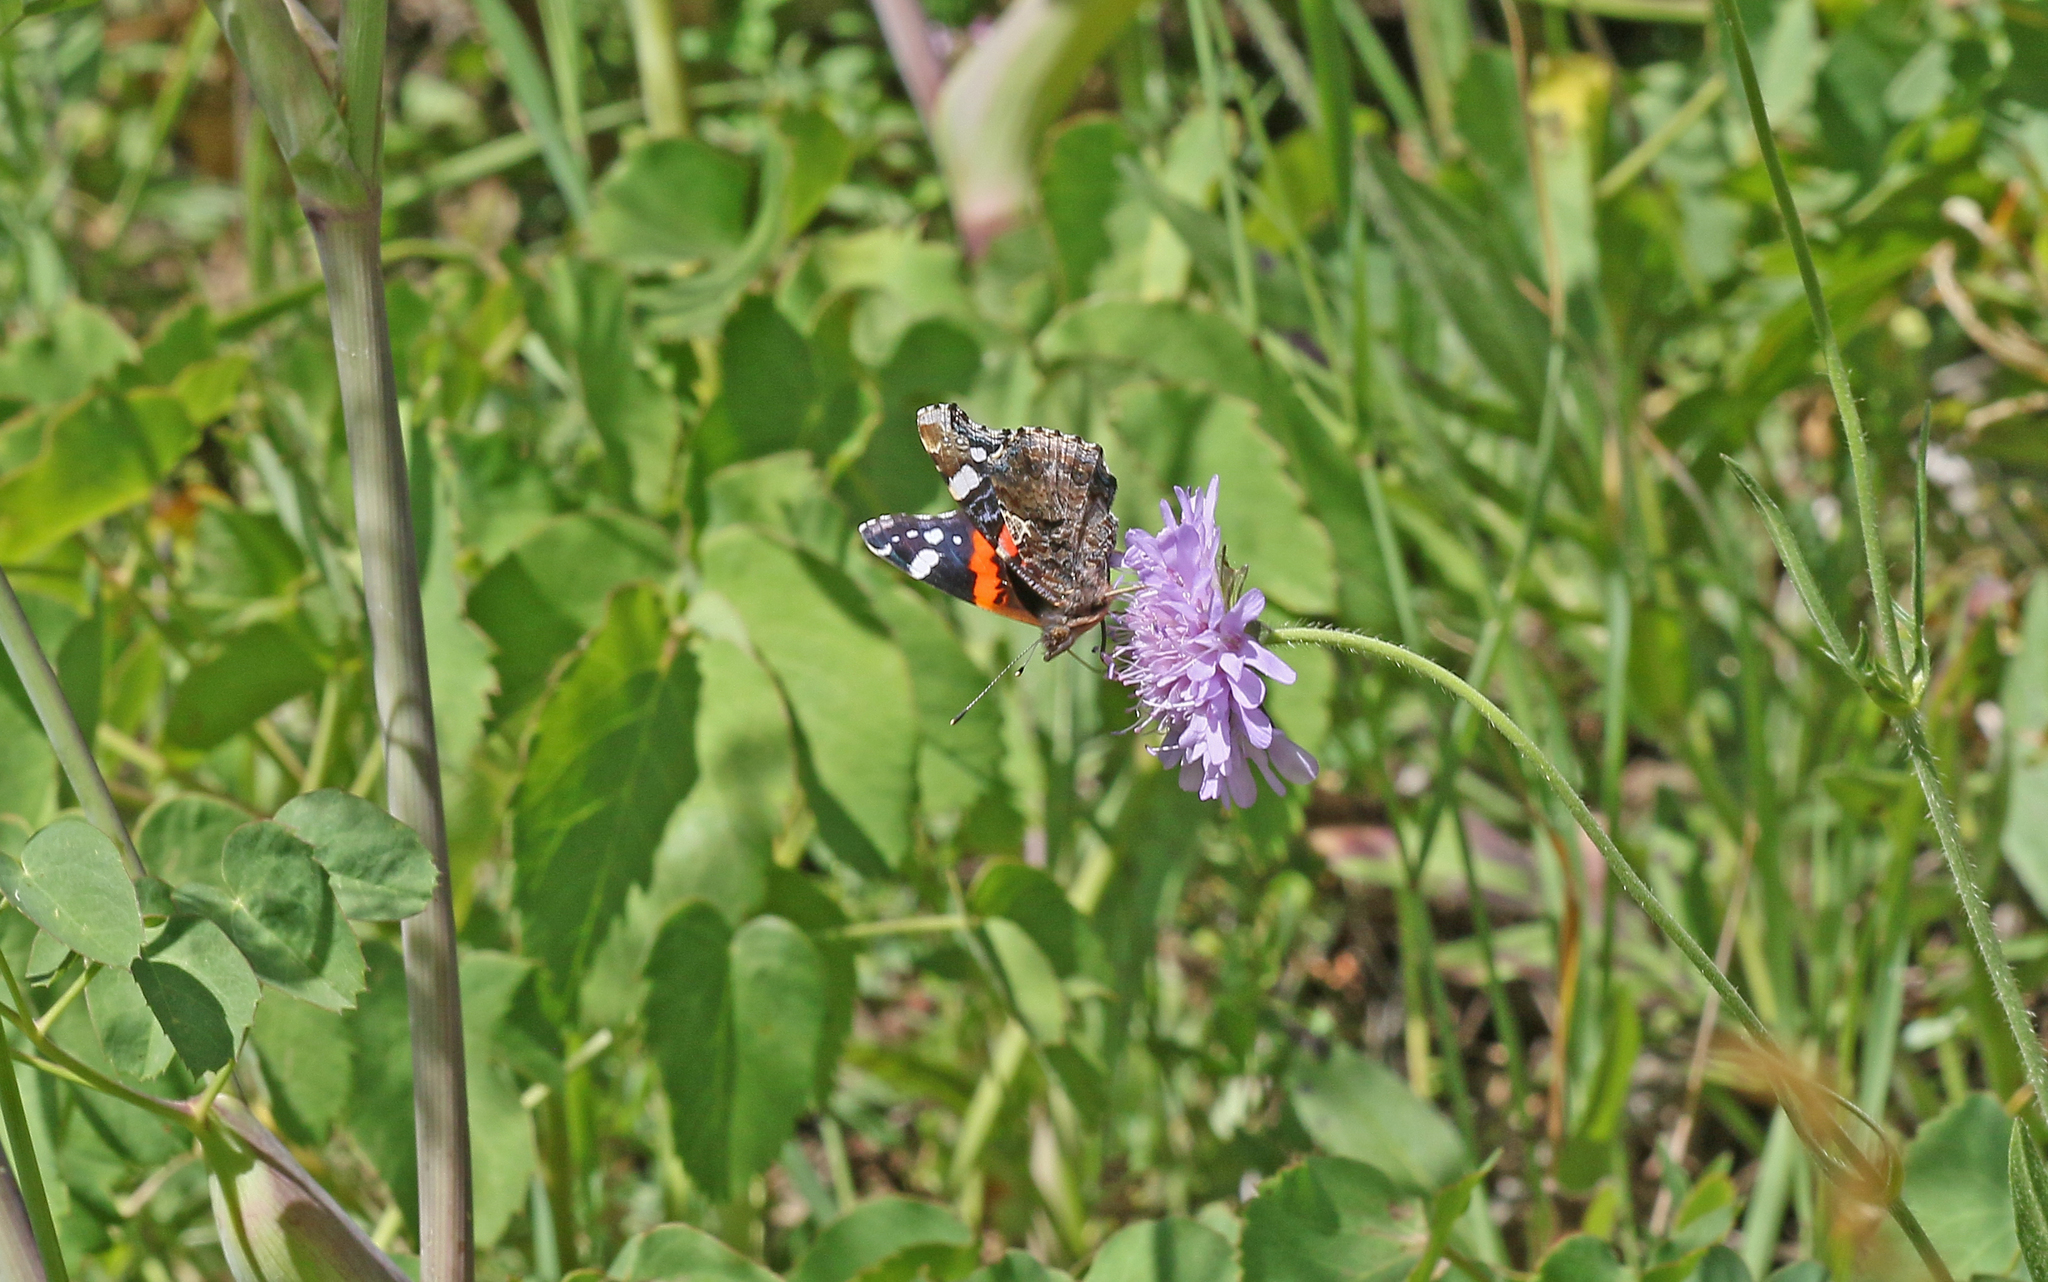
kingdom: Animalia
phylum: Arthropoda
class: Insecta
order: Lepidoptera
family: Nymphalidae
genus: Vanessa
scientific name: Vanessa atalanta
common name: Red admiral
